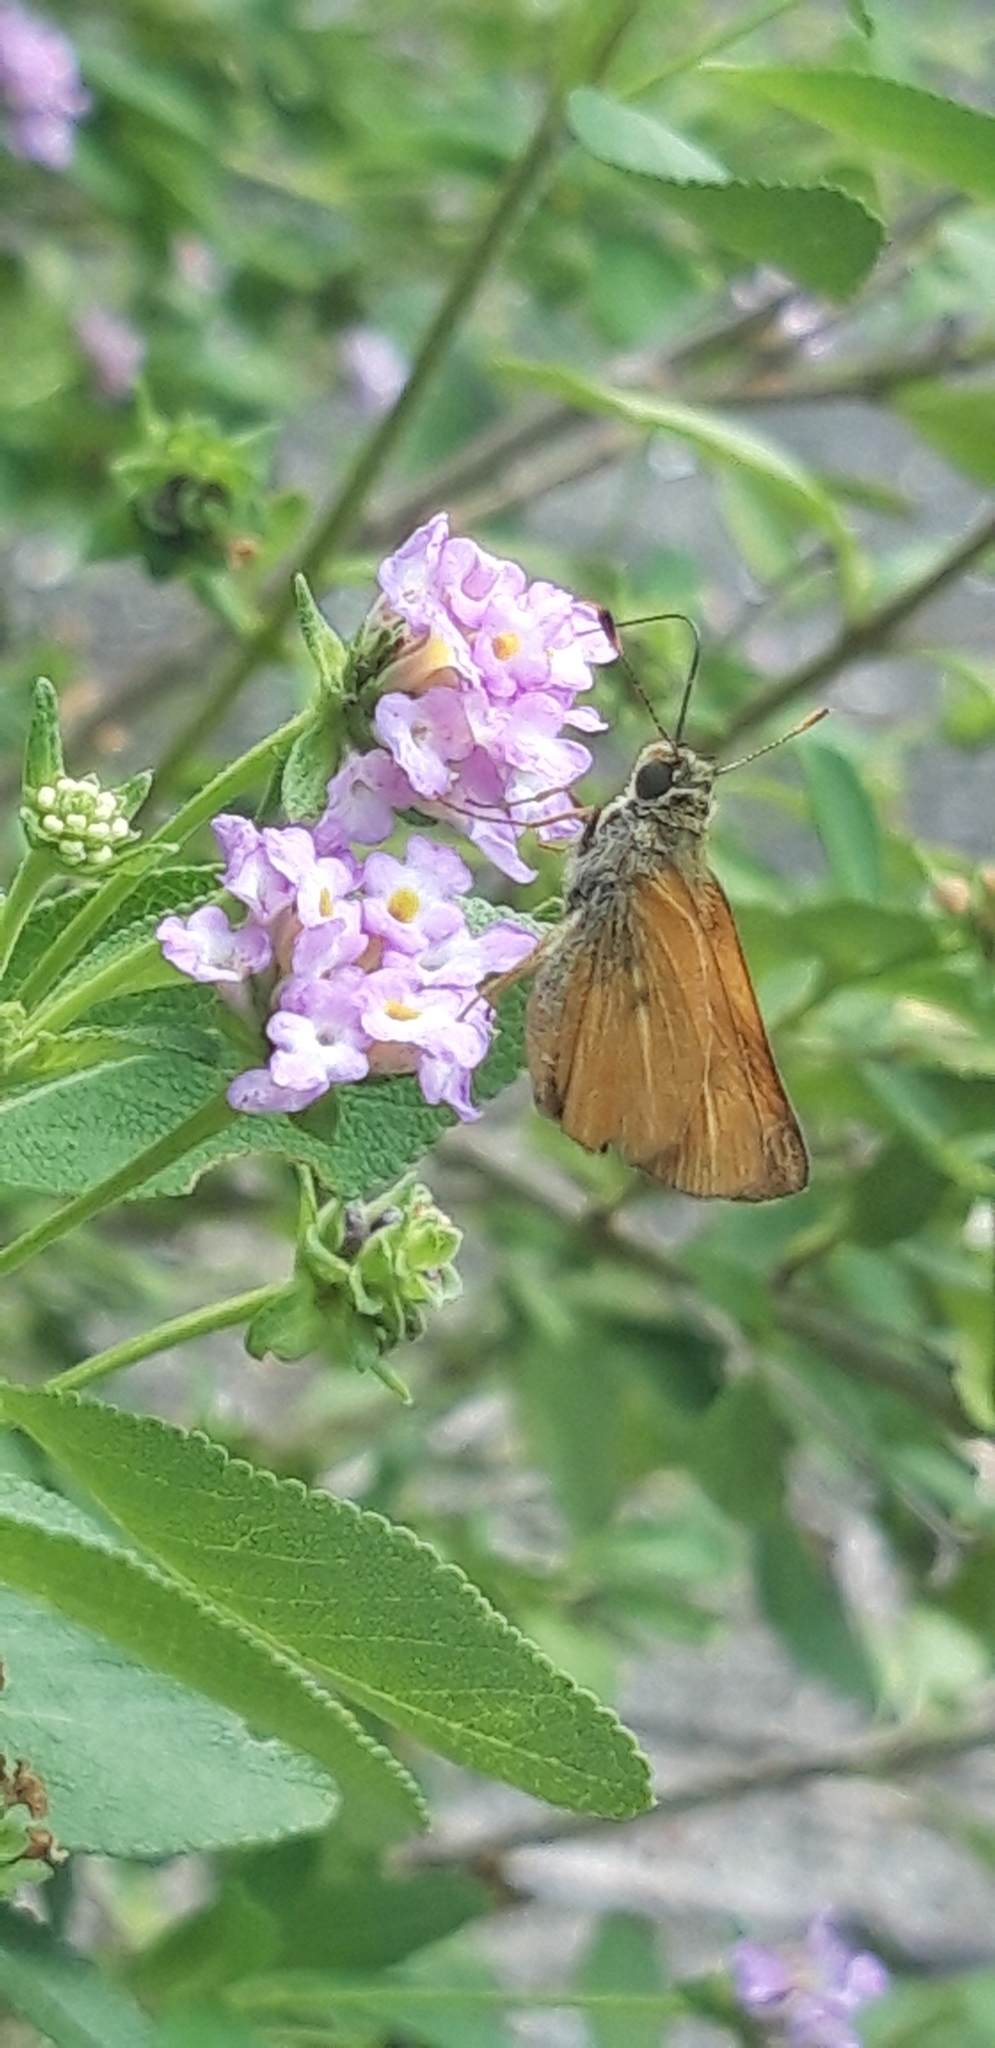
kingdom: Animalia
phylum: Arthropoda
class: Insecta
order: Lepidoptera
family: Hesperiidae
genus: Choranthus
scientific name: Choranthus vitellius
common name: Vitellius skipper
